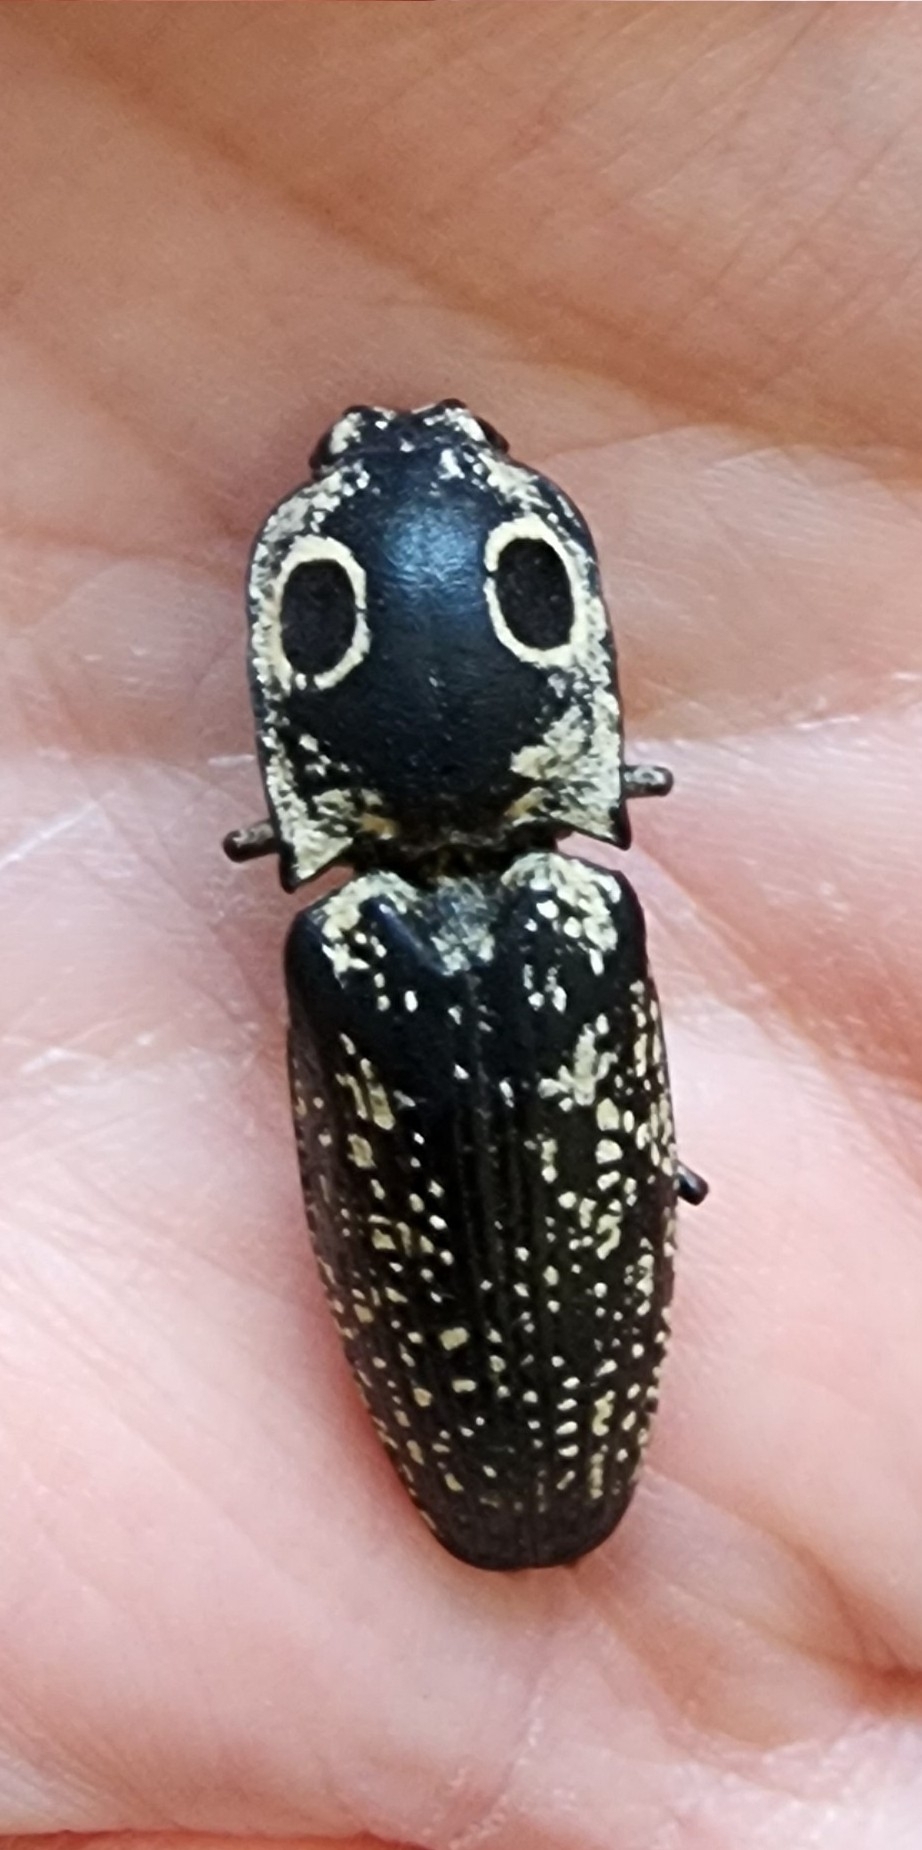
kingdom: Animalia
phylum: Arthropoda
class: Insecta
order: Coleoptera
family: Elateridae
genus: Alaus
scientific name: Alaus
